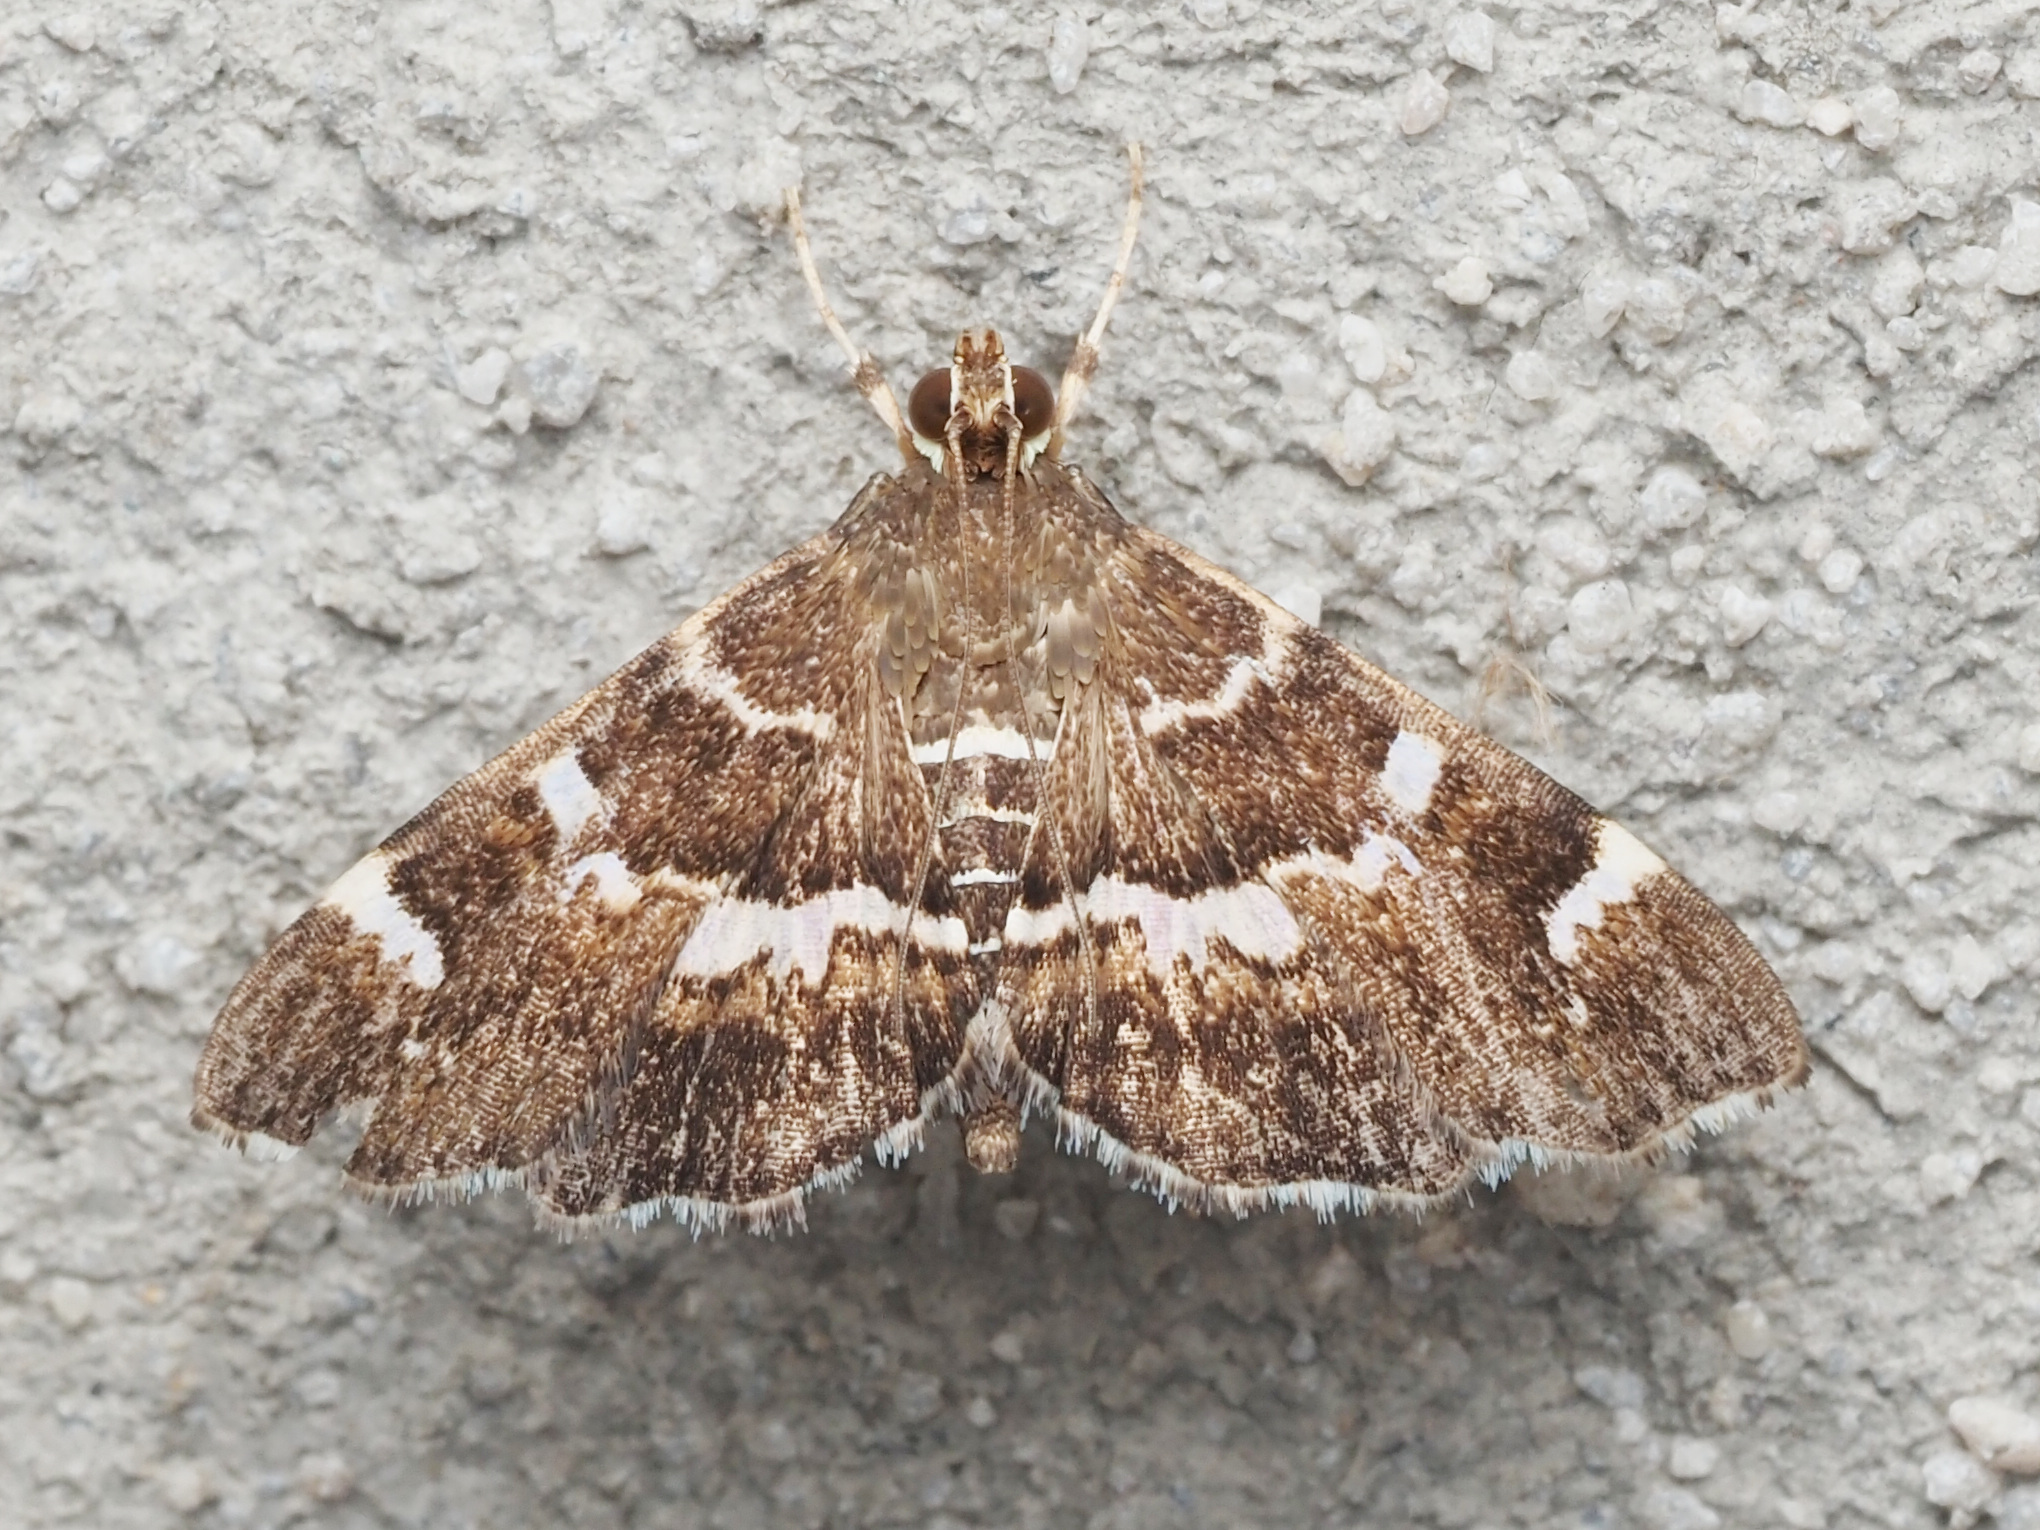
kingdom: Animalia
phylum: Arthropoda
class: Insecta
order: Lepidoptera
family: Crambidae
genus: Hymenia
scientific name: Hymenia perspectalis
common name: Spotted beet webworm
